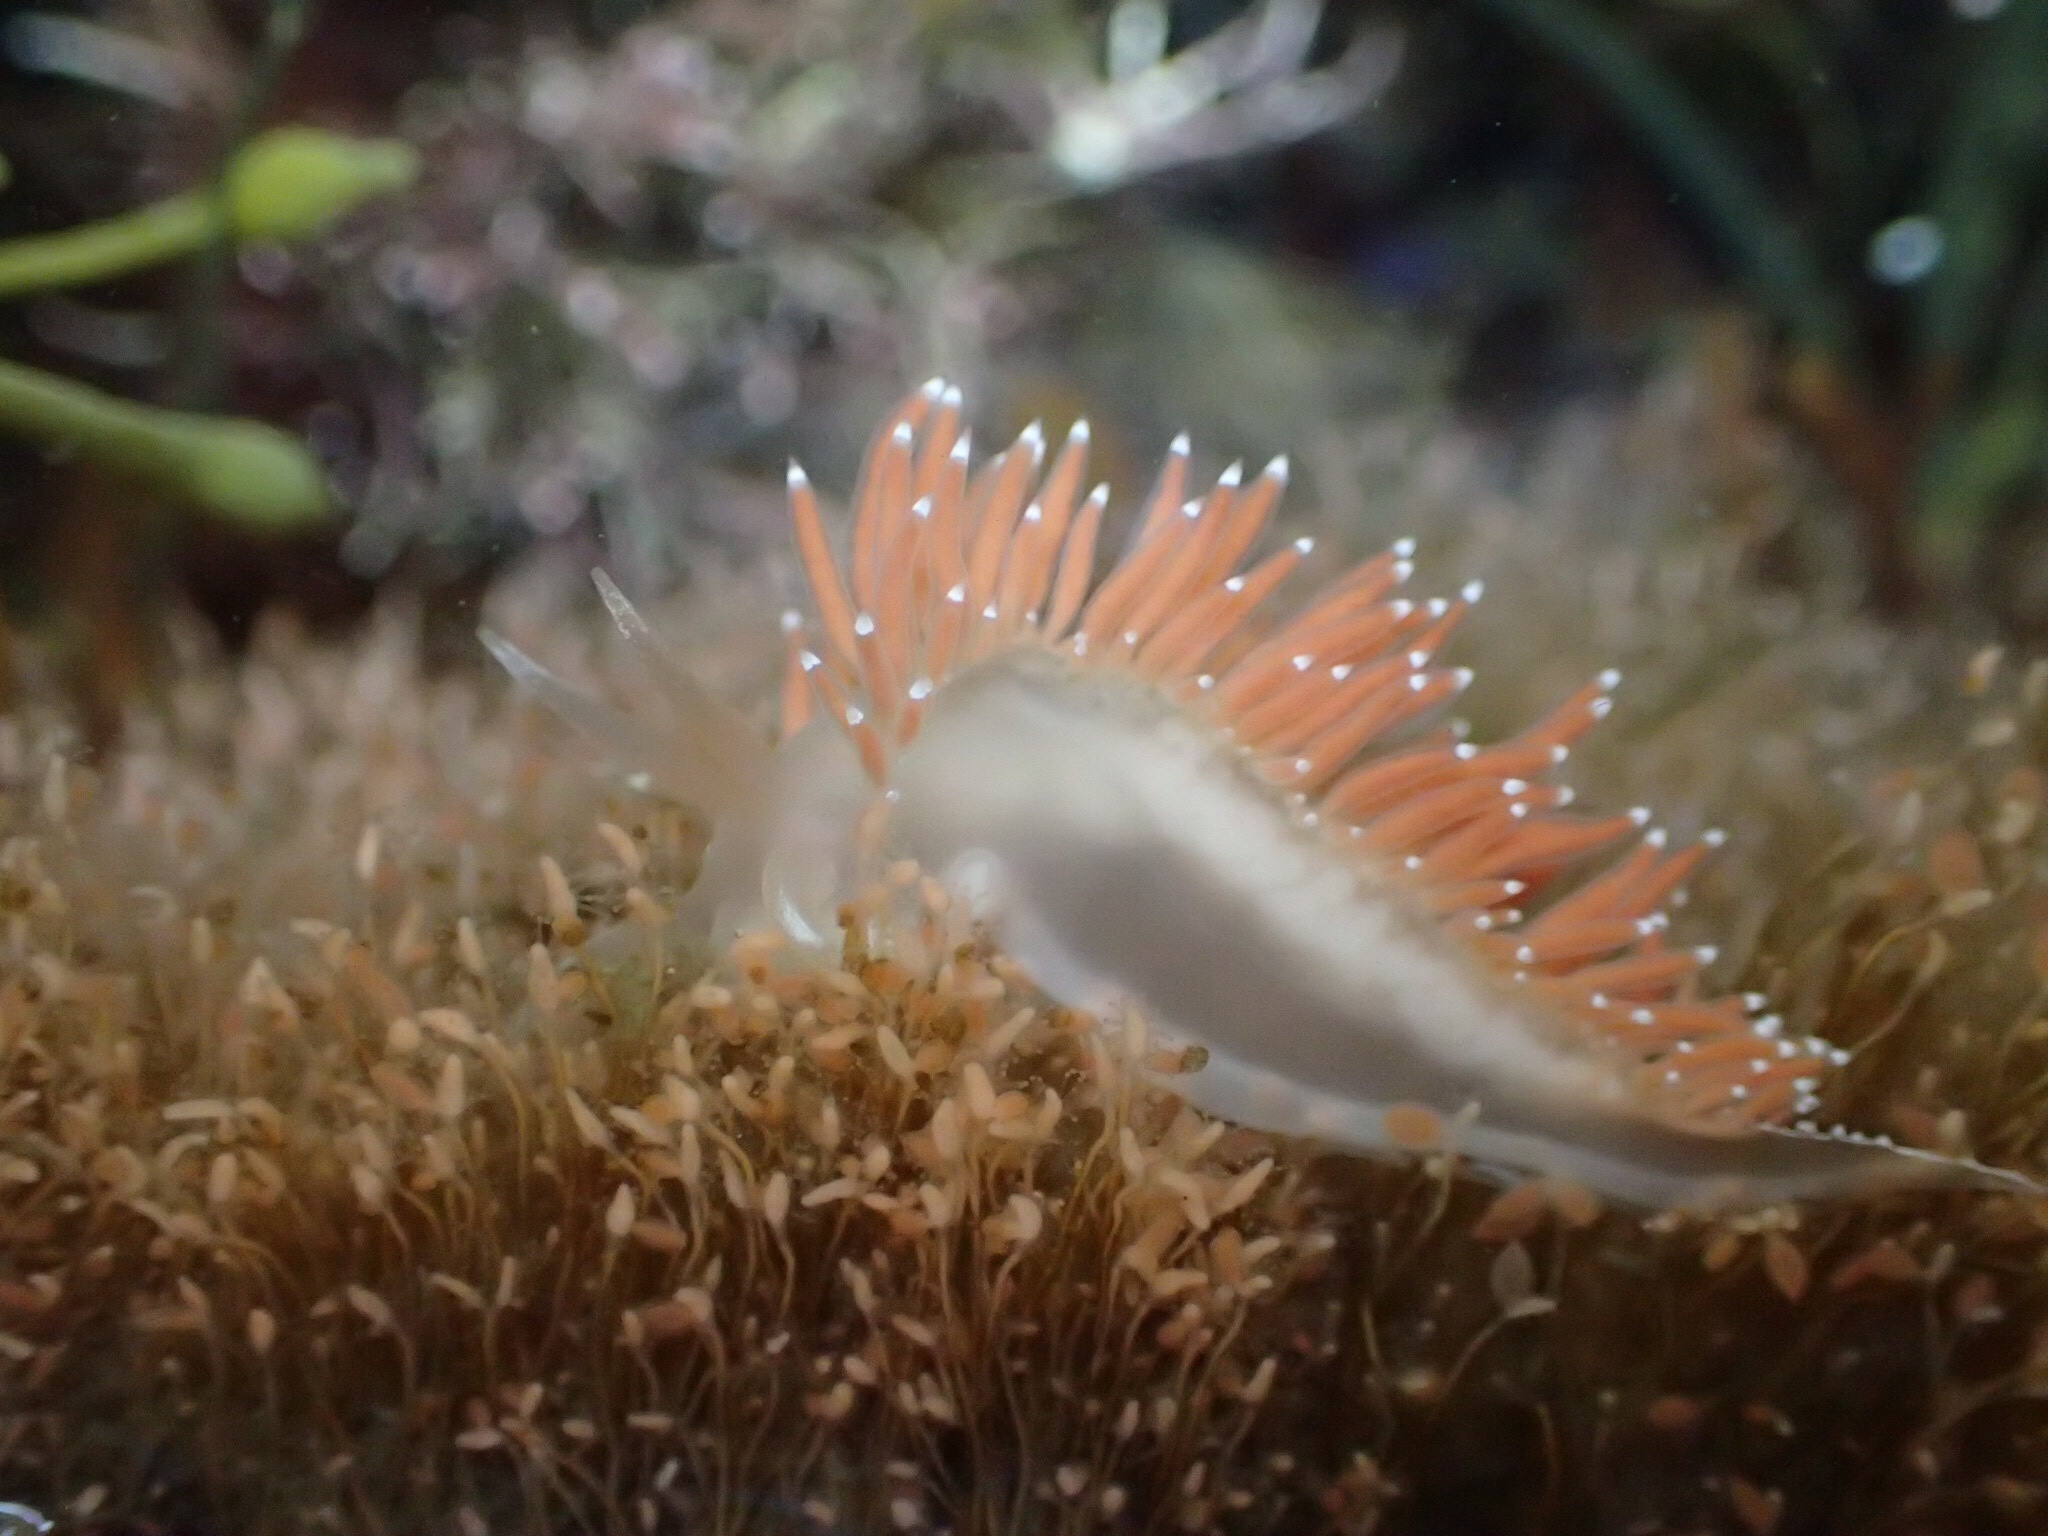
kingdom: Animalia
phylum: Mollusca
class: Gastropoda
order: Nudibranchia
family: Coryphellidae
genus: Coryphella
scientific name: Coryphella nobilis
